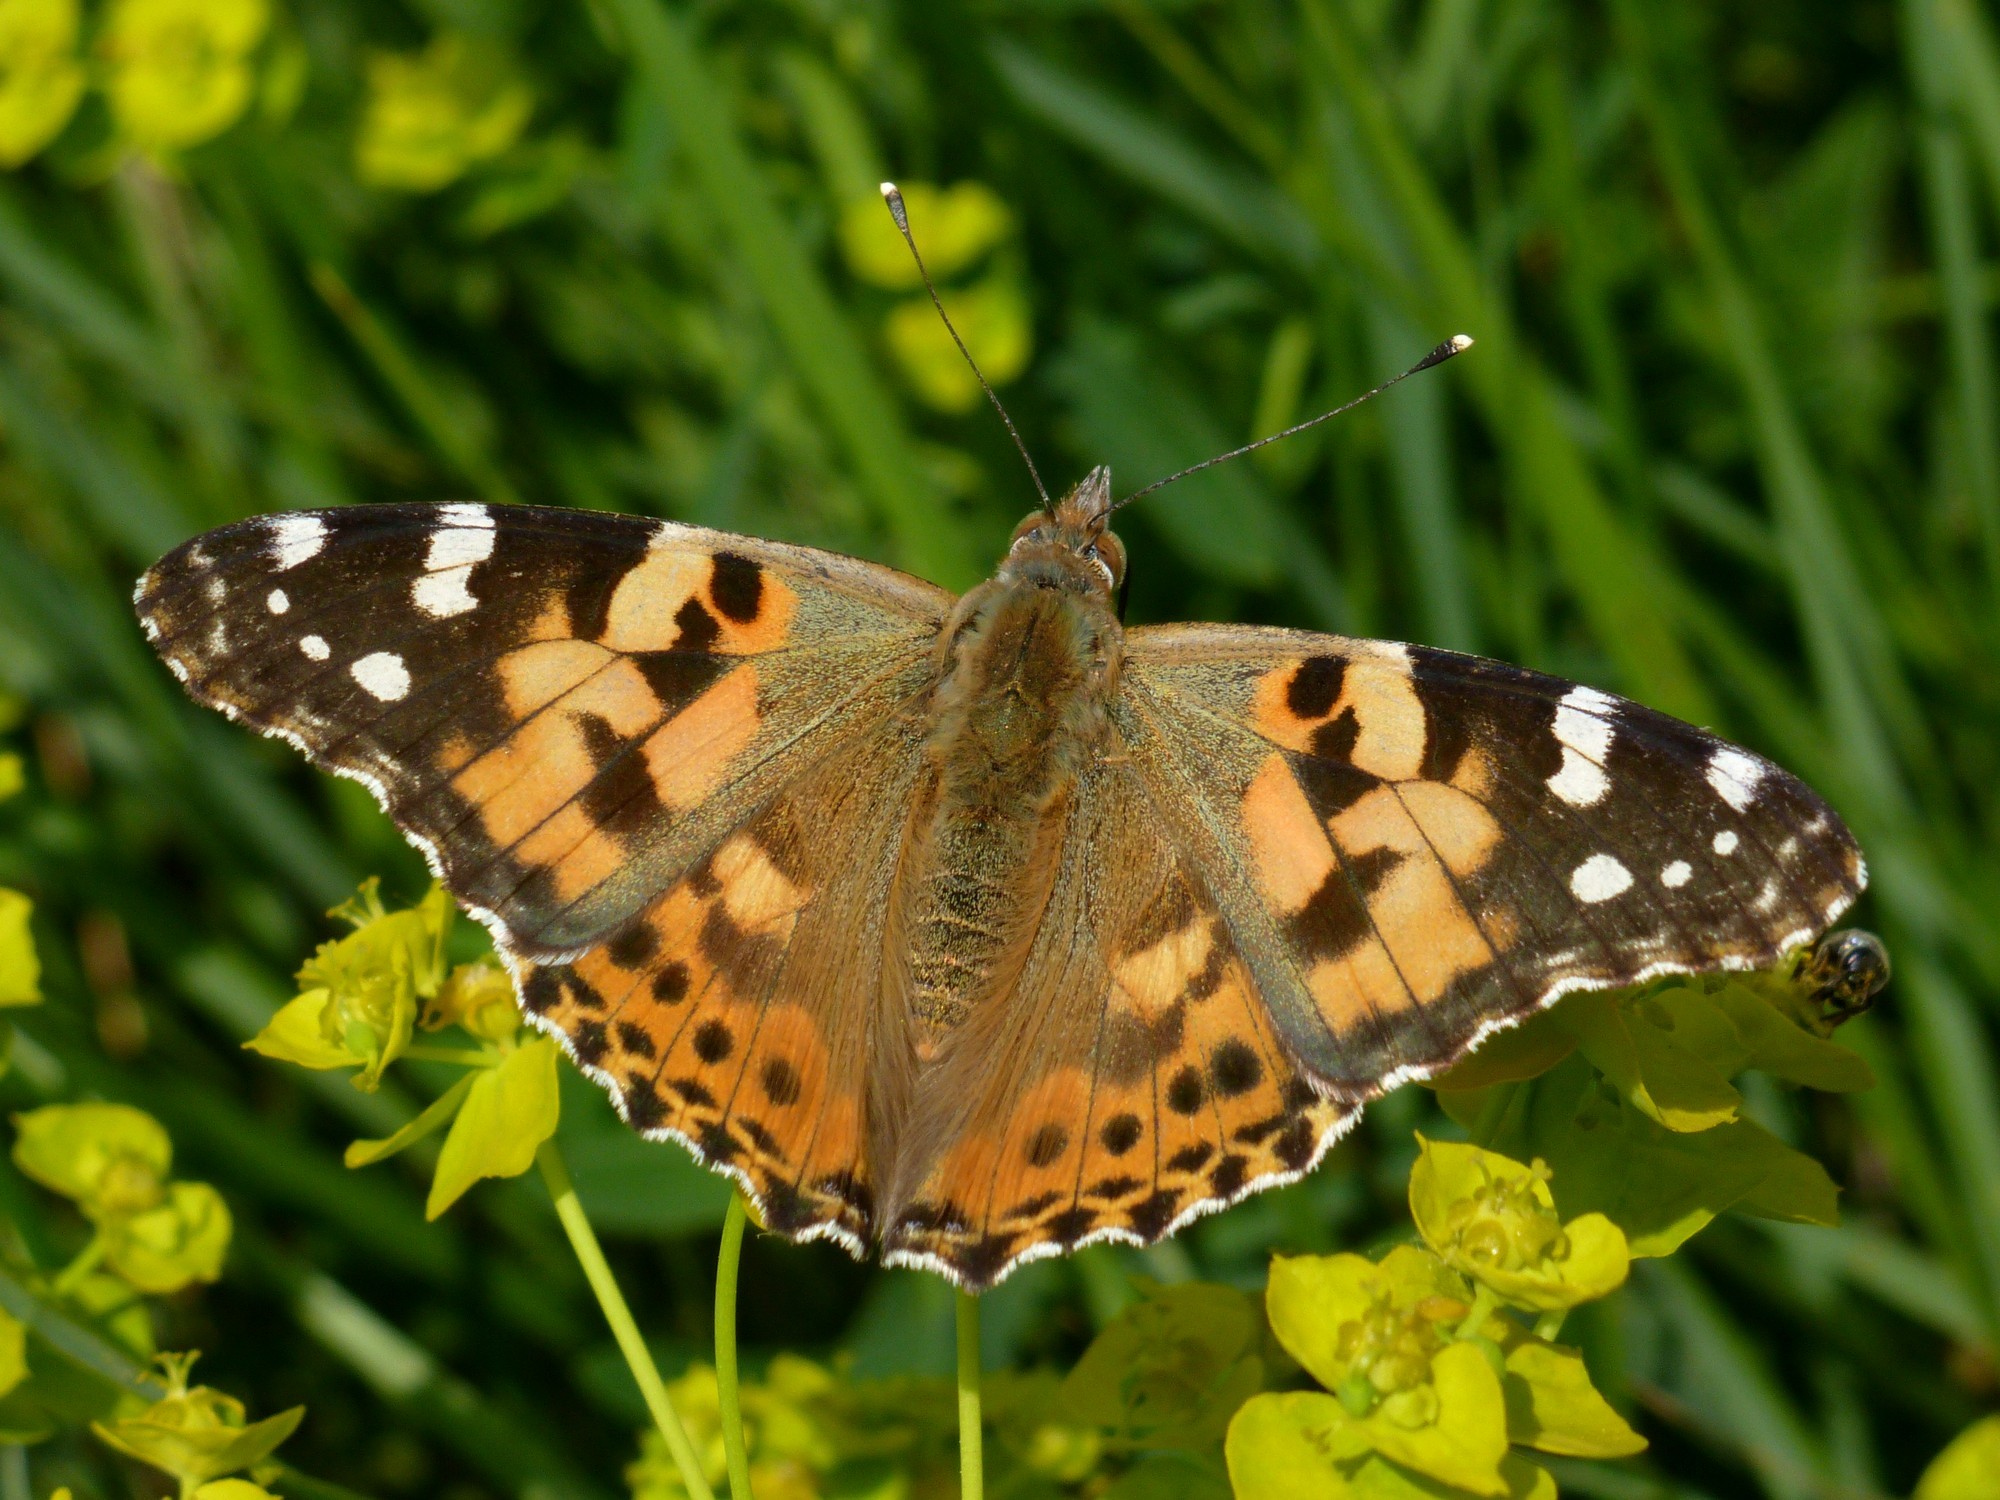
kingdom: Animalia
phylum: Arthropoda
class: Insecta
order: Lepidoptera
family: Nymphalidae
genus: Vanessa
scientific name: Vanessa cardui
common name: Painted lady
